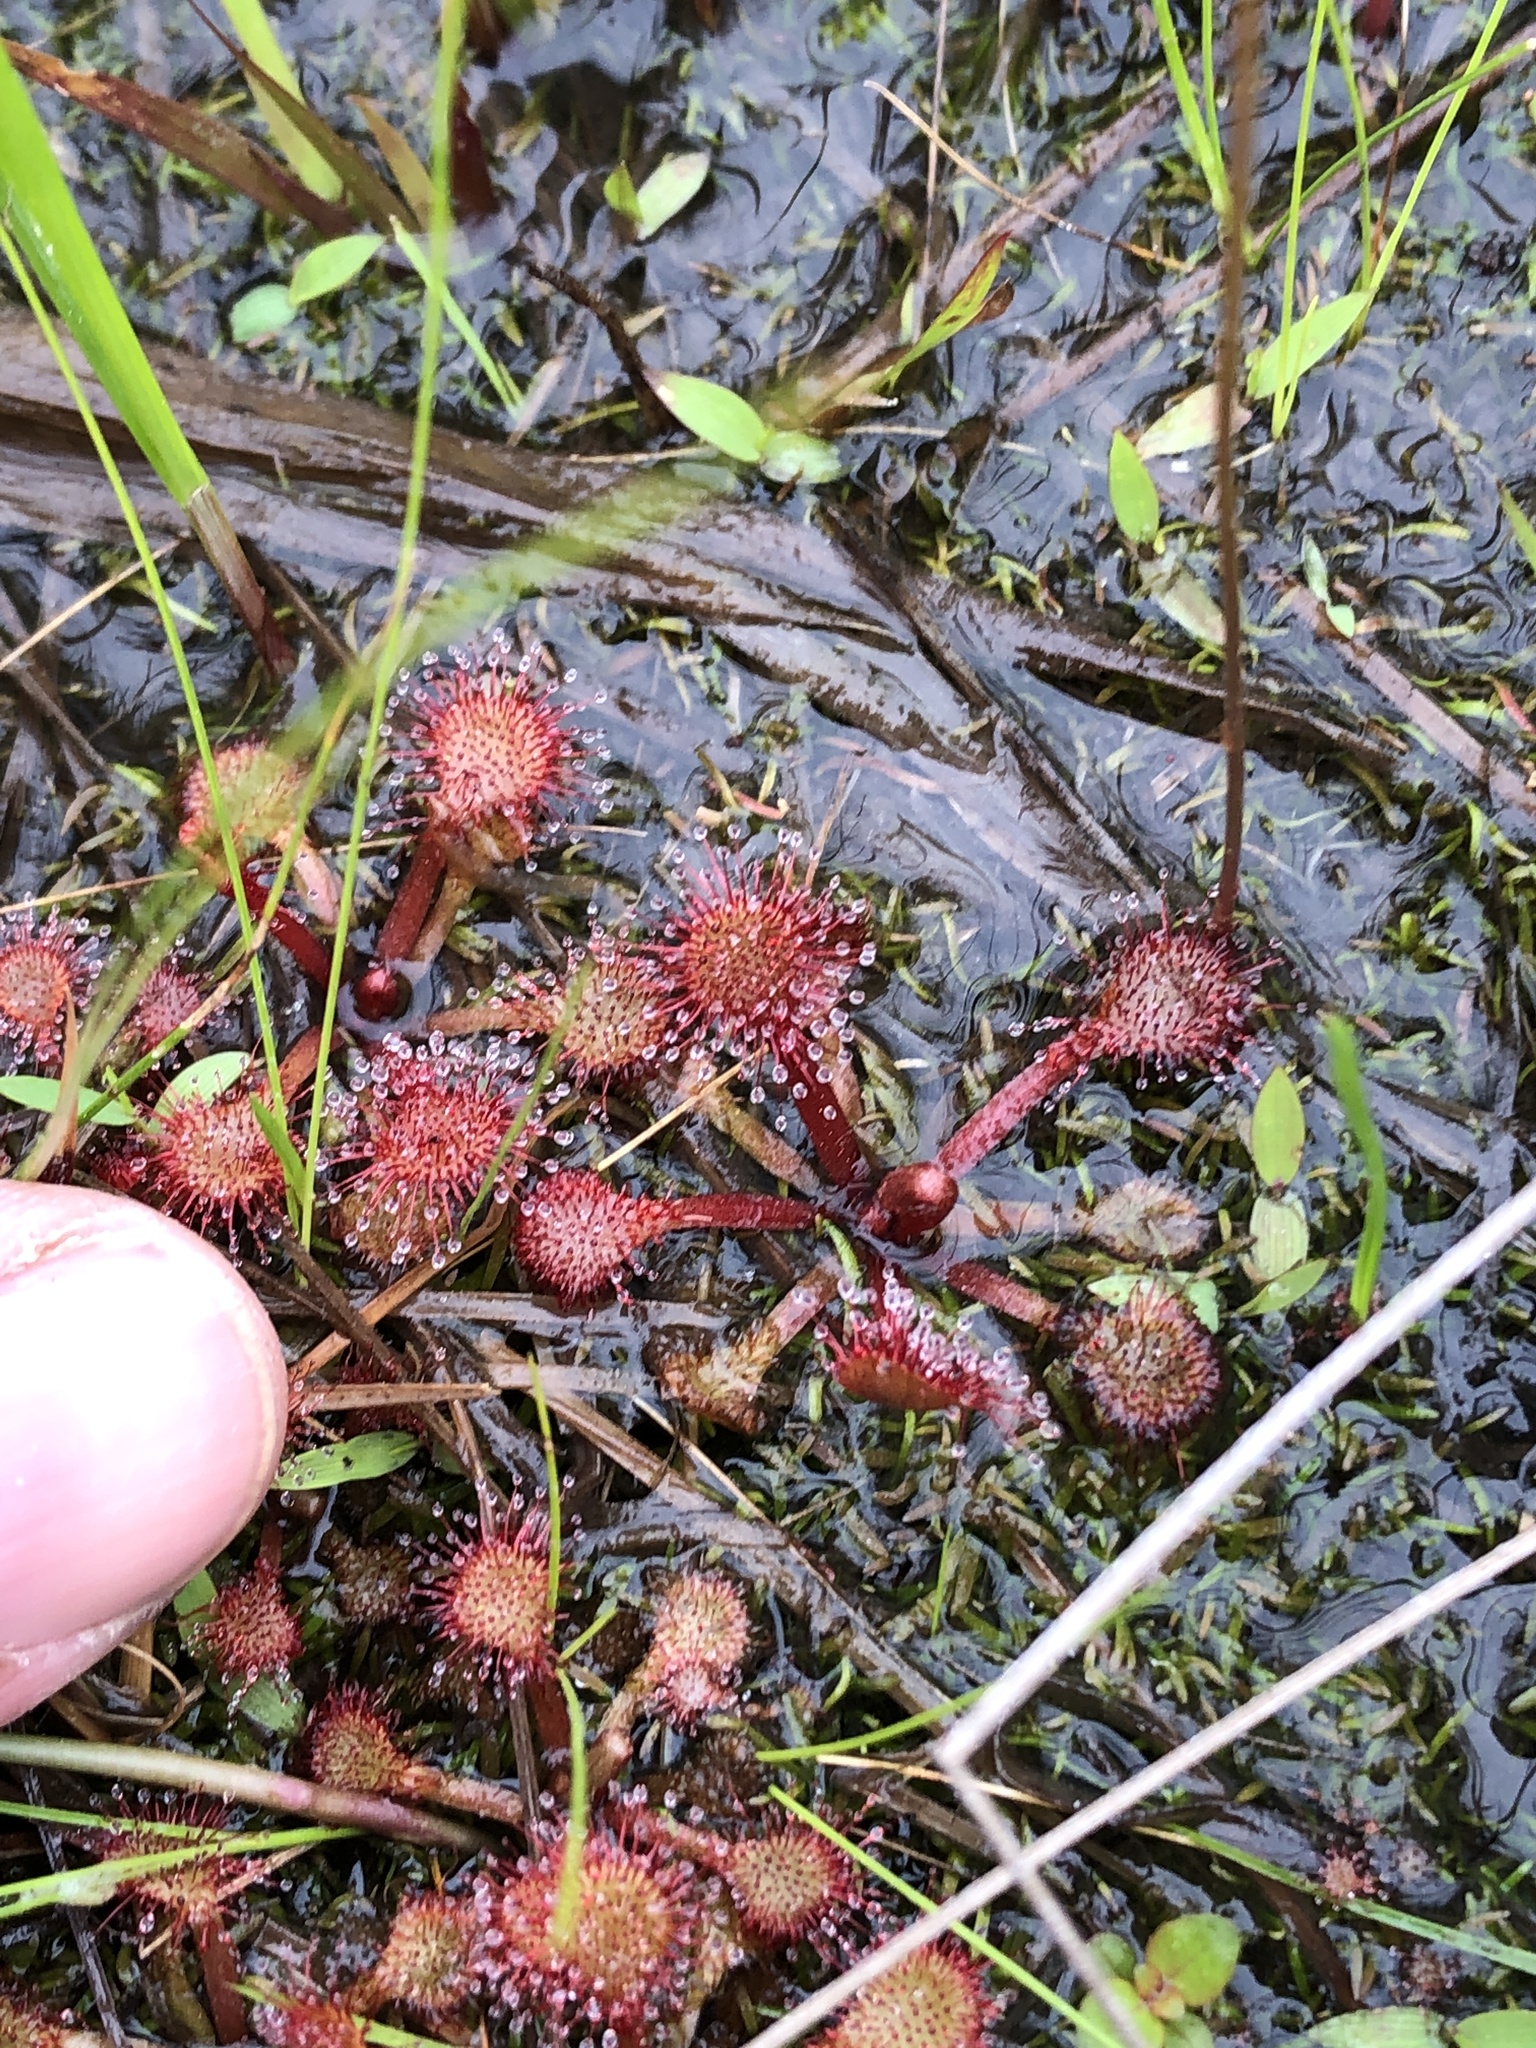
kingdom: Plantae
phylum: Tracheophyta
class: Magnoliopsida
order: Caryophyllales
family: Droseraceae
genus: Drosera
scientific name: Drosera capillaris
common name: Pink sundew
